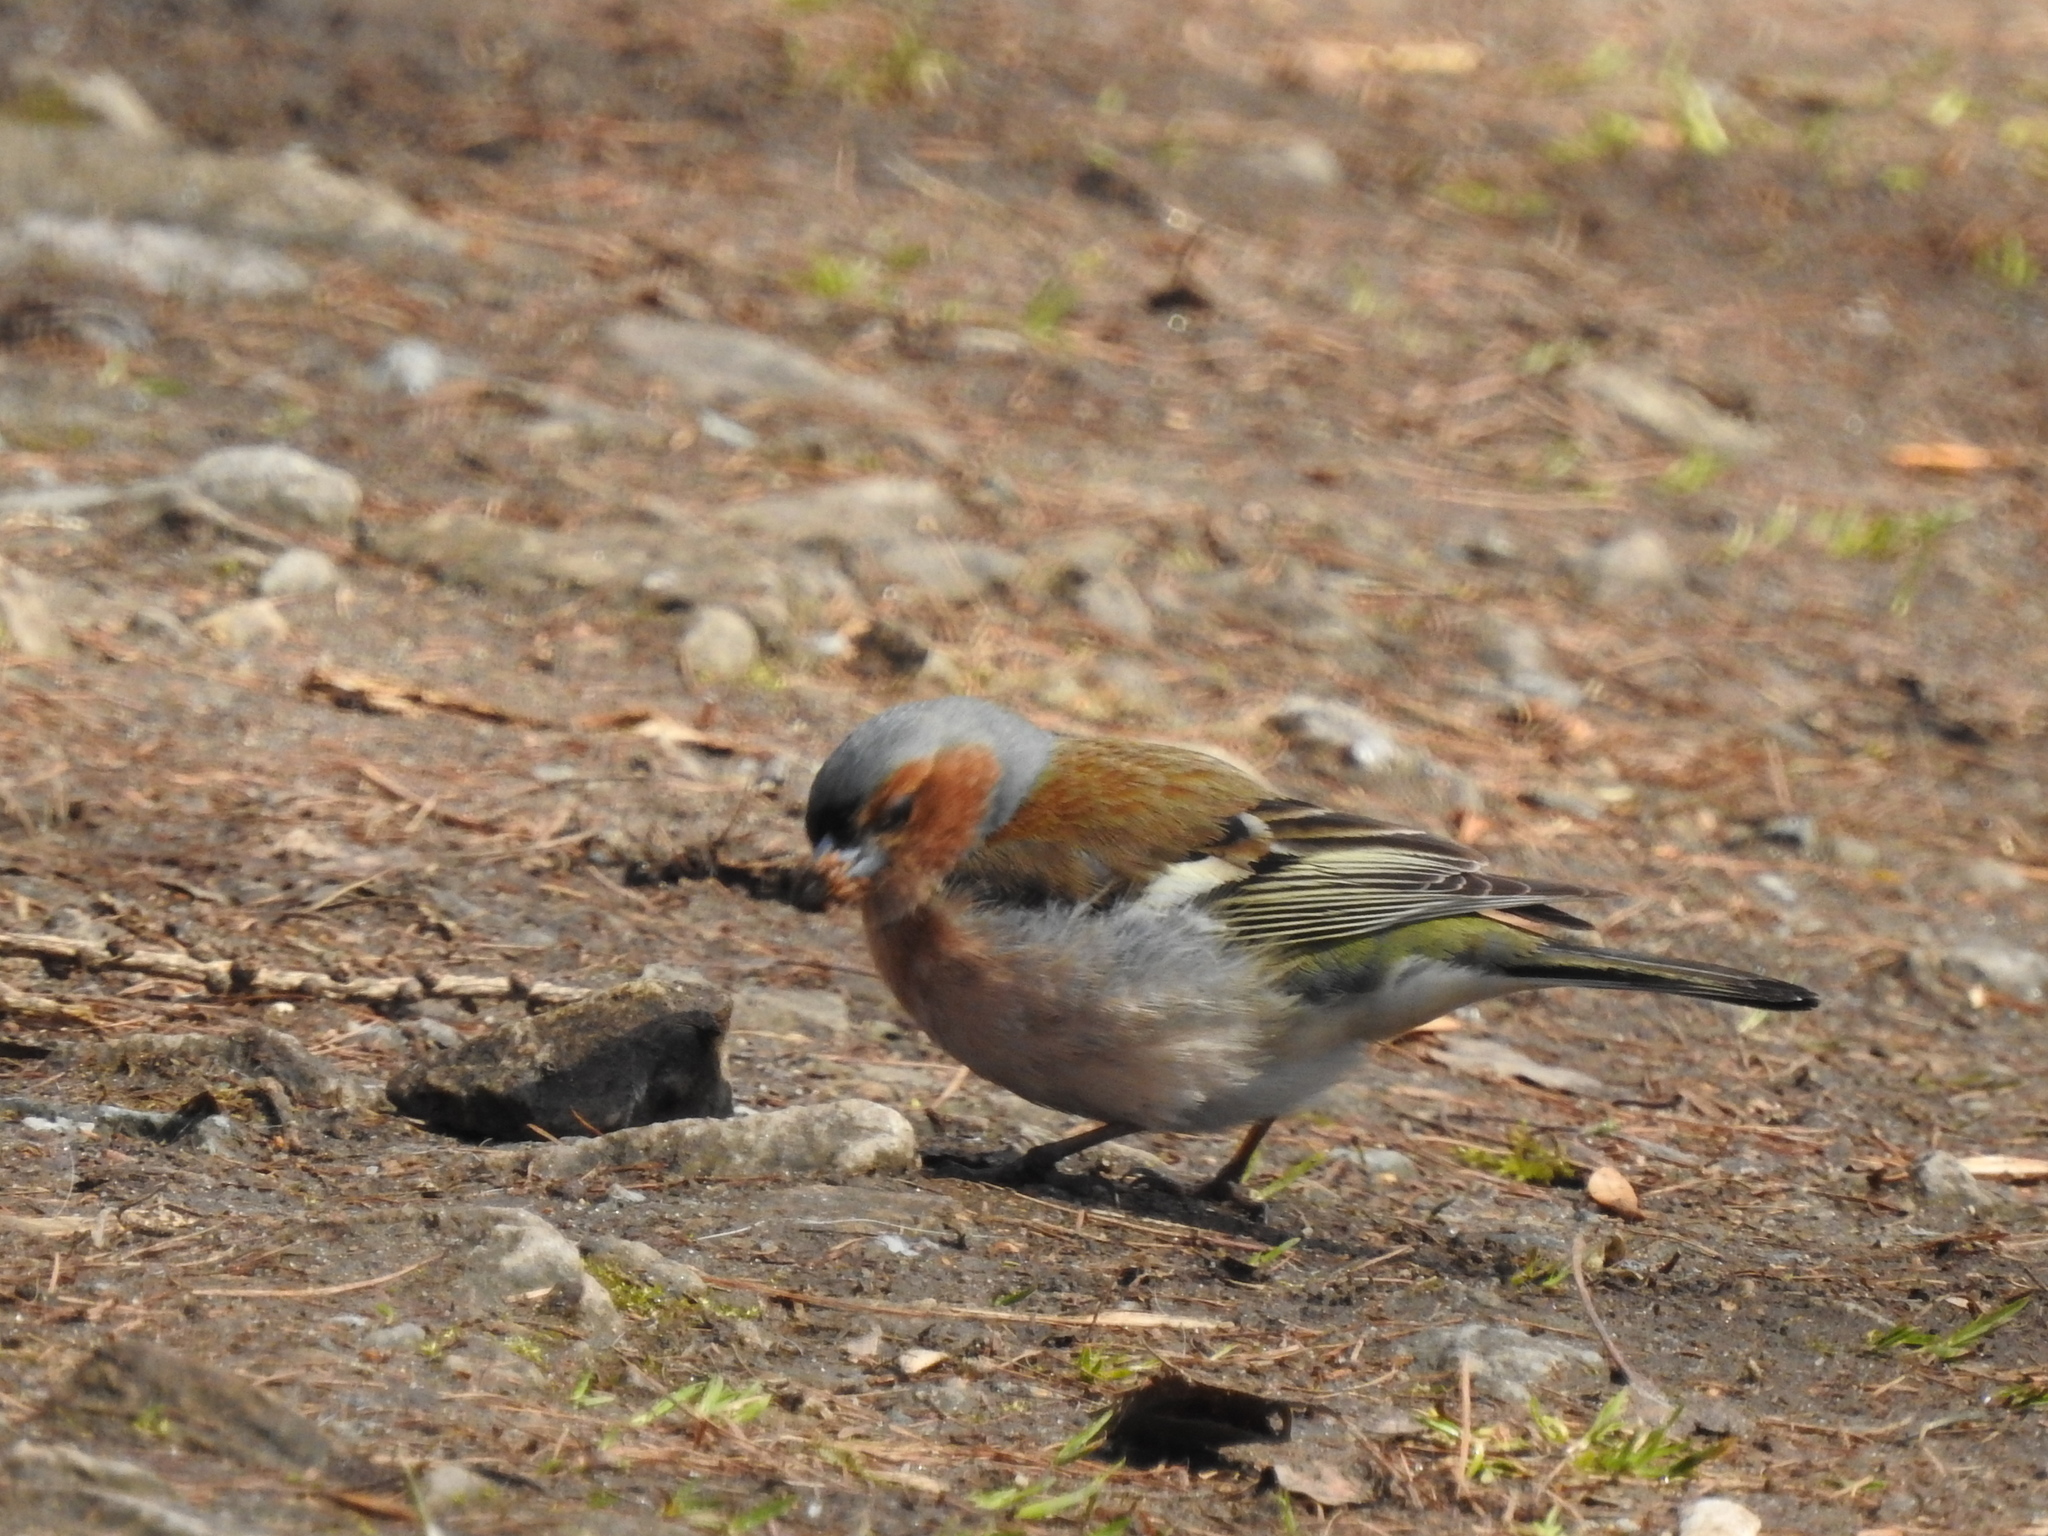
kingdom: Animalia
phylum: Chordata
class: Aves
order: Passeriformes
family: Fringillidae
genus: Fringilla
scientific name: Fringilla coelebs
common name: Common chaffinch
